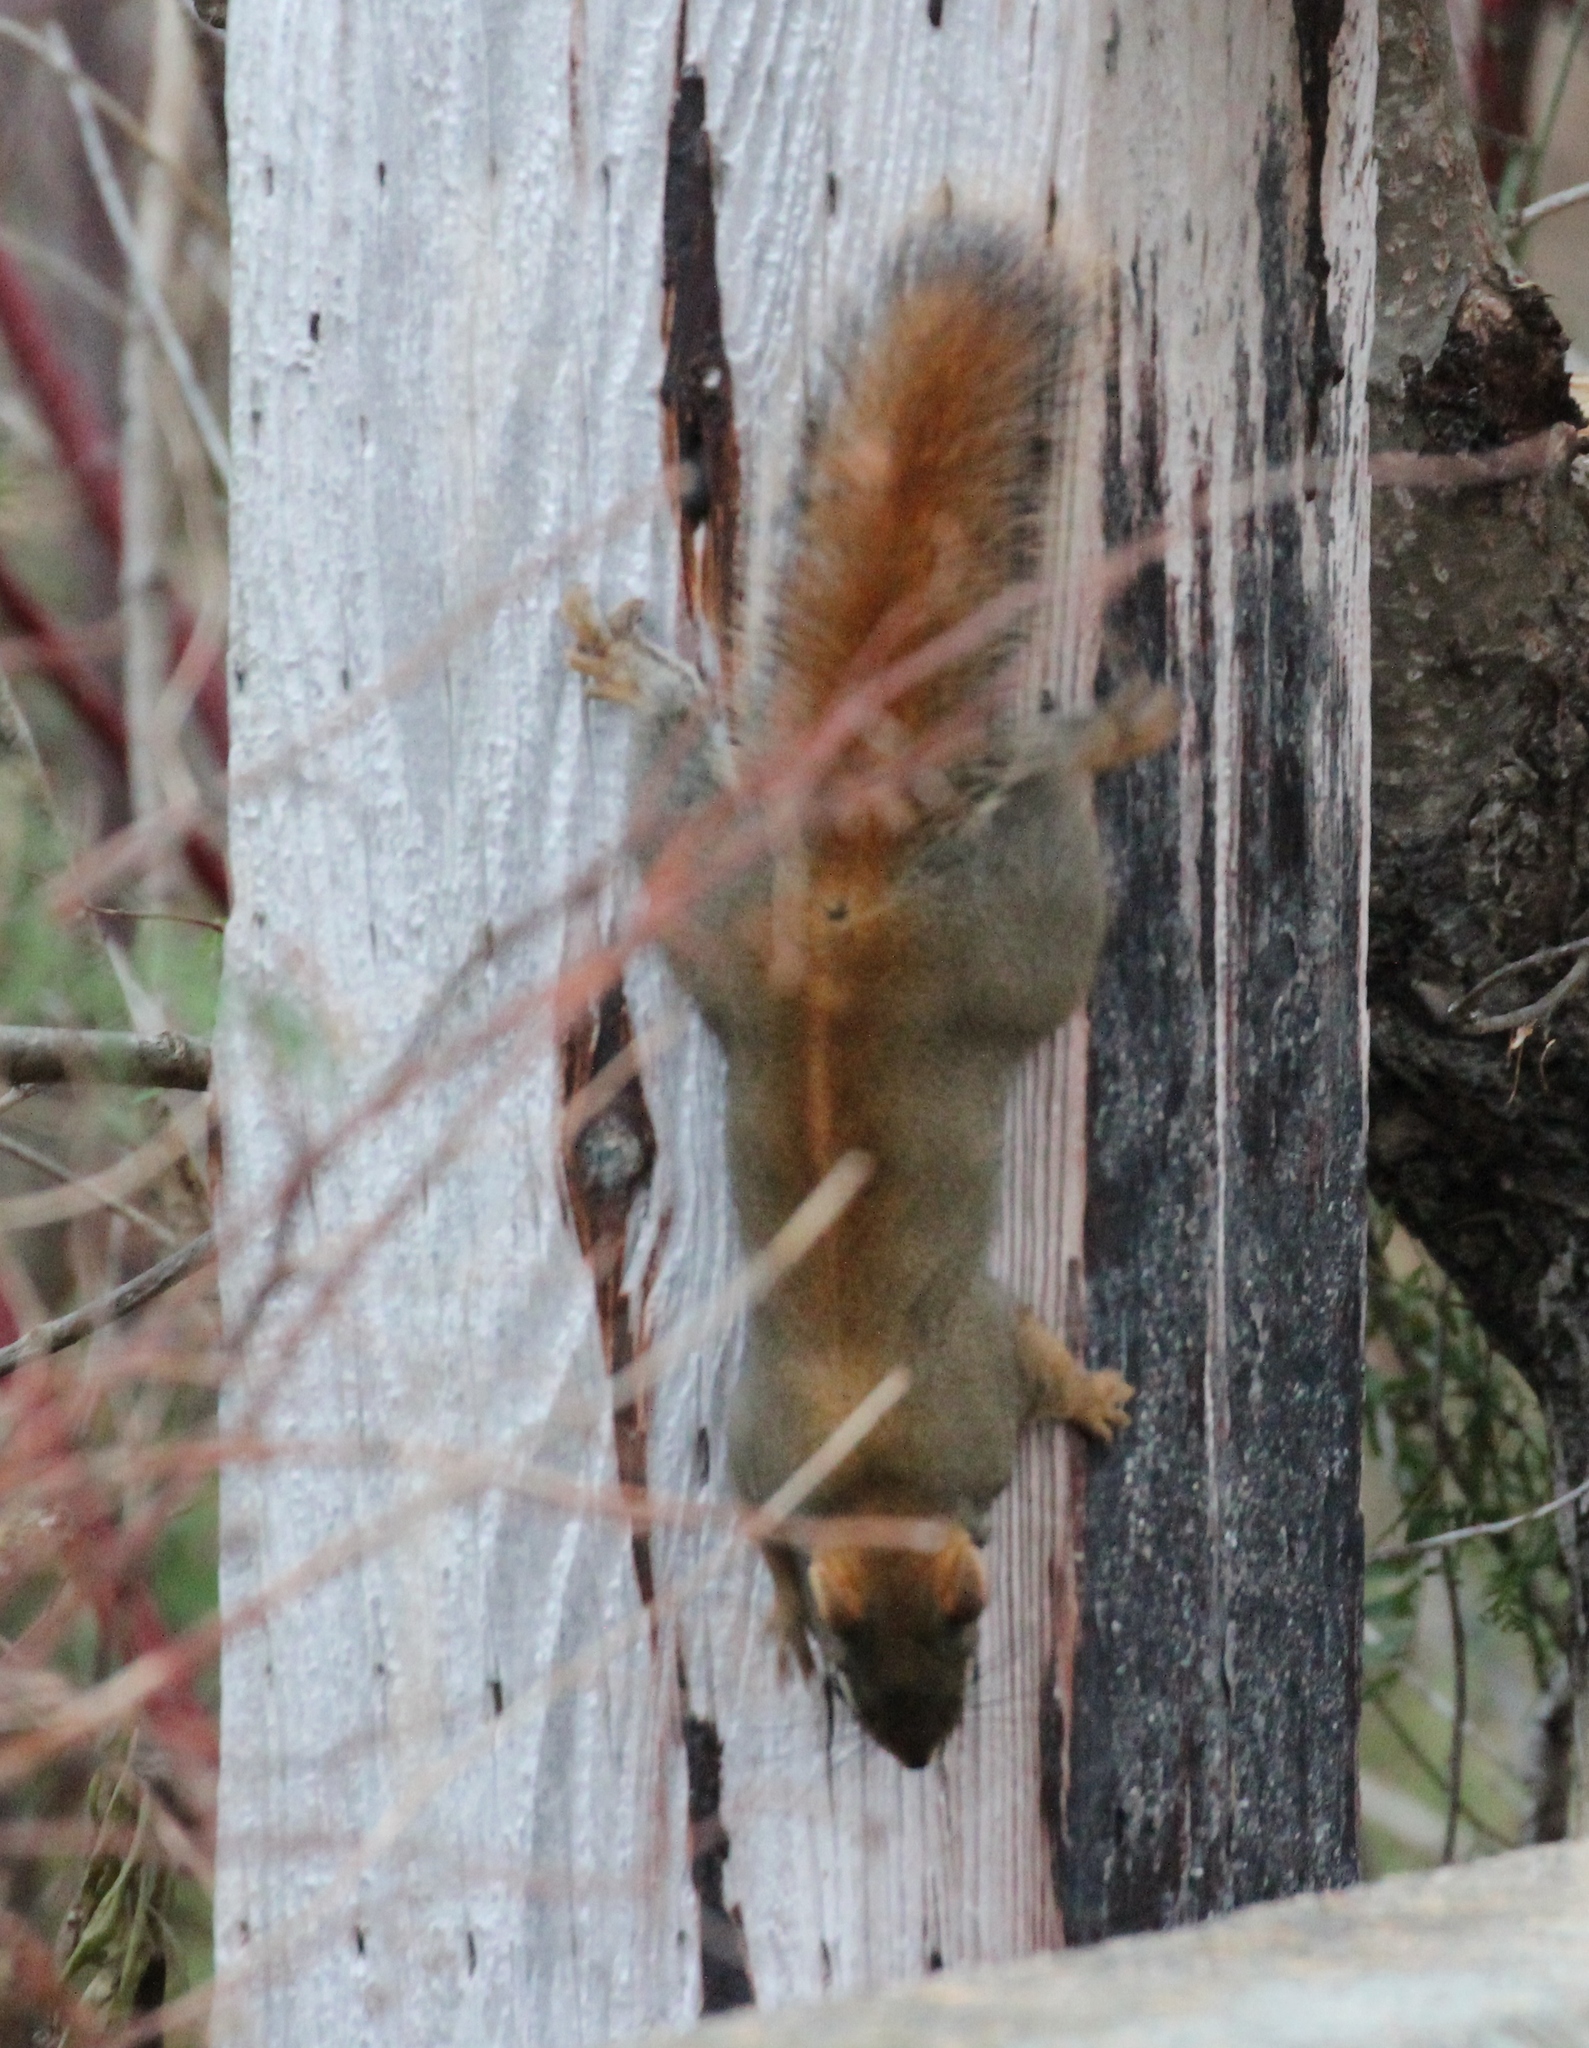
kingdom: Animalia
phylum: Chordata
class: Mammalia
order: Rodentia
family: Sciuridae
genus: Tamiasciurus
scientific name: Tamiasciurus hudsonicus
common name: Red squirrel
